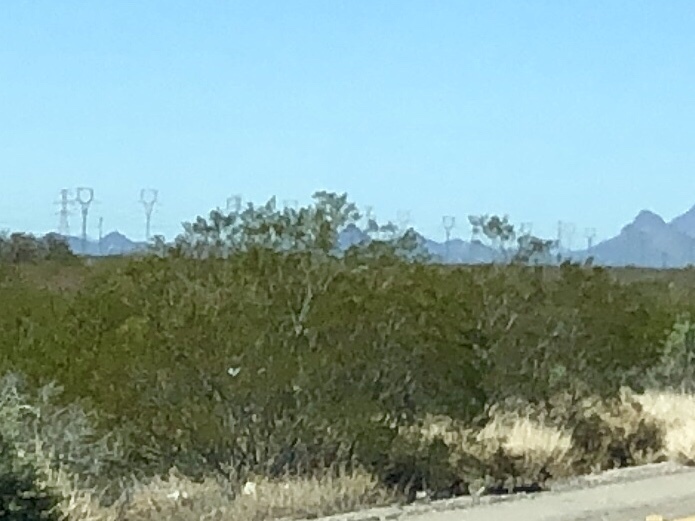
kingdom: Plantae
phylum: Tracheophyta
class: Magnoliopsida
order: Zygophyllales
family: Zygophyllaceae
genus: Larrea
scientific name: Larrea tridentata
